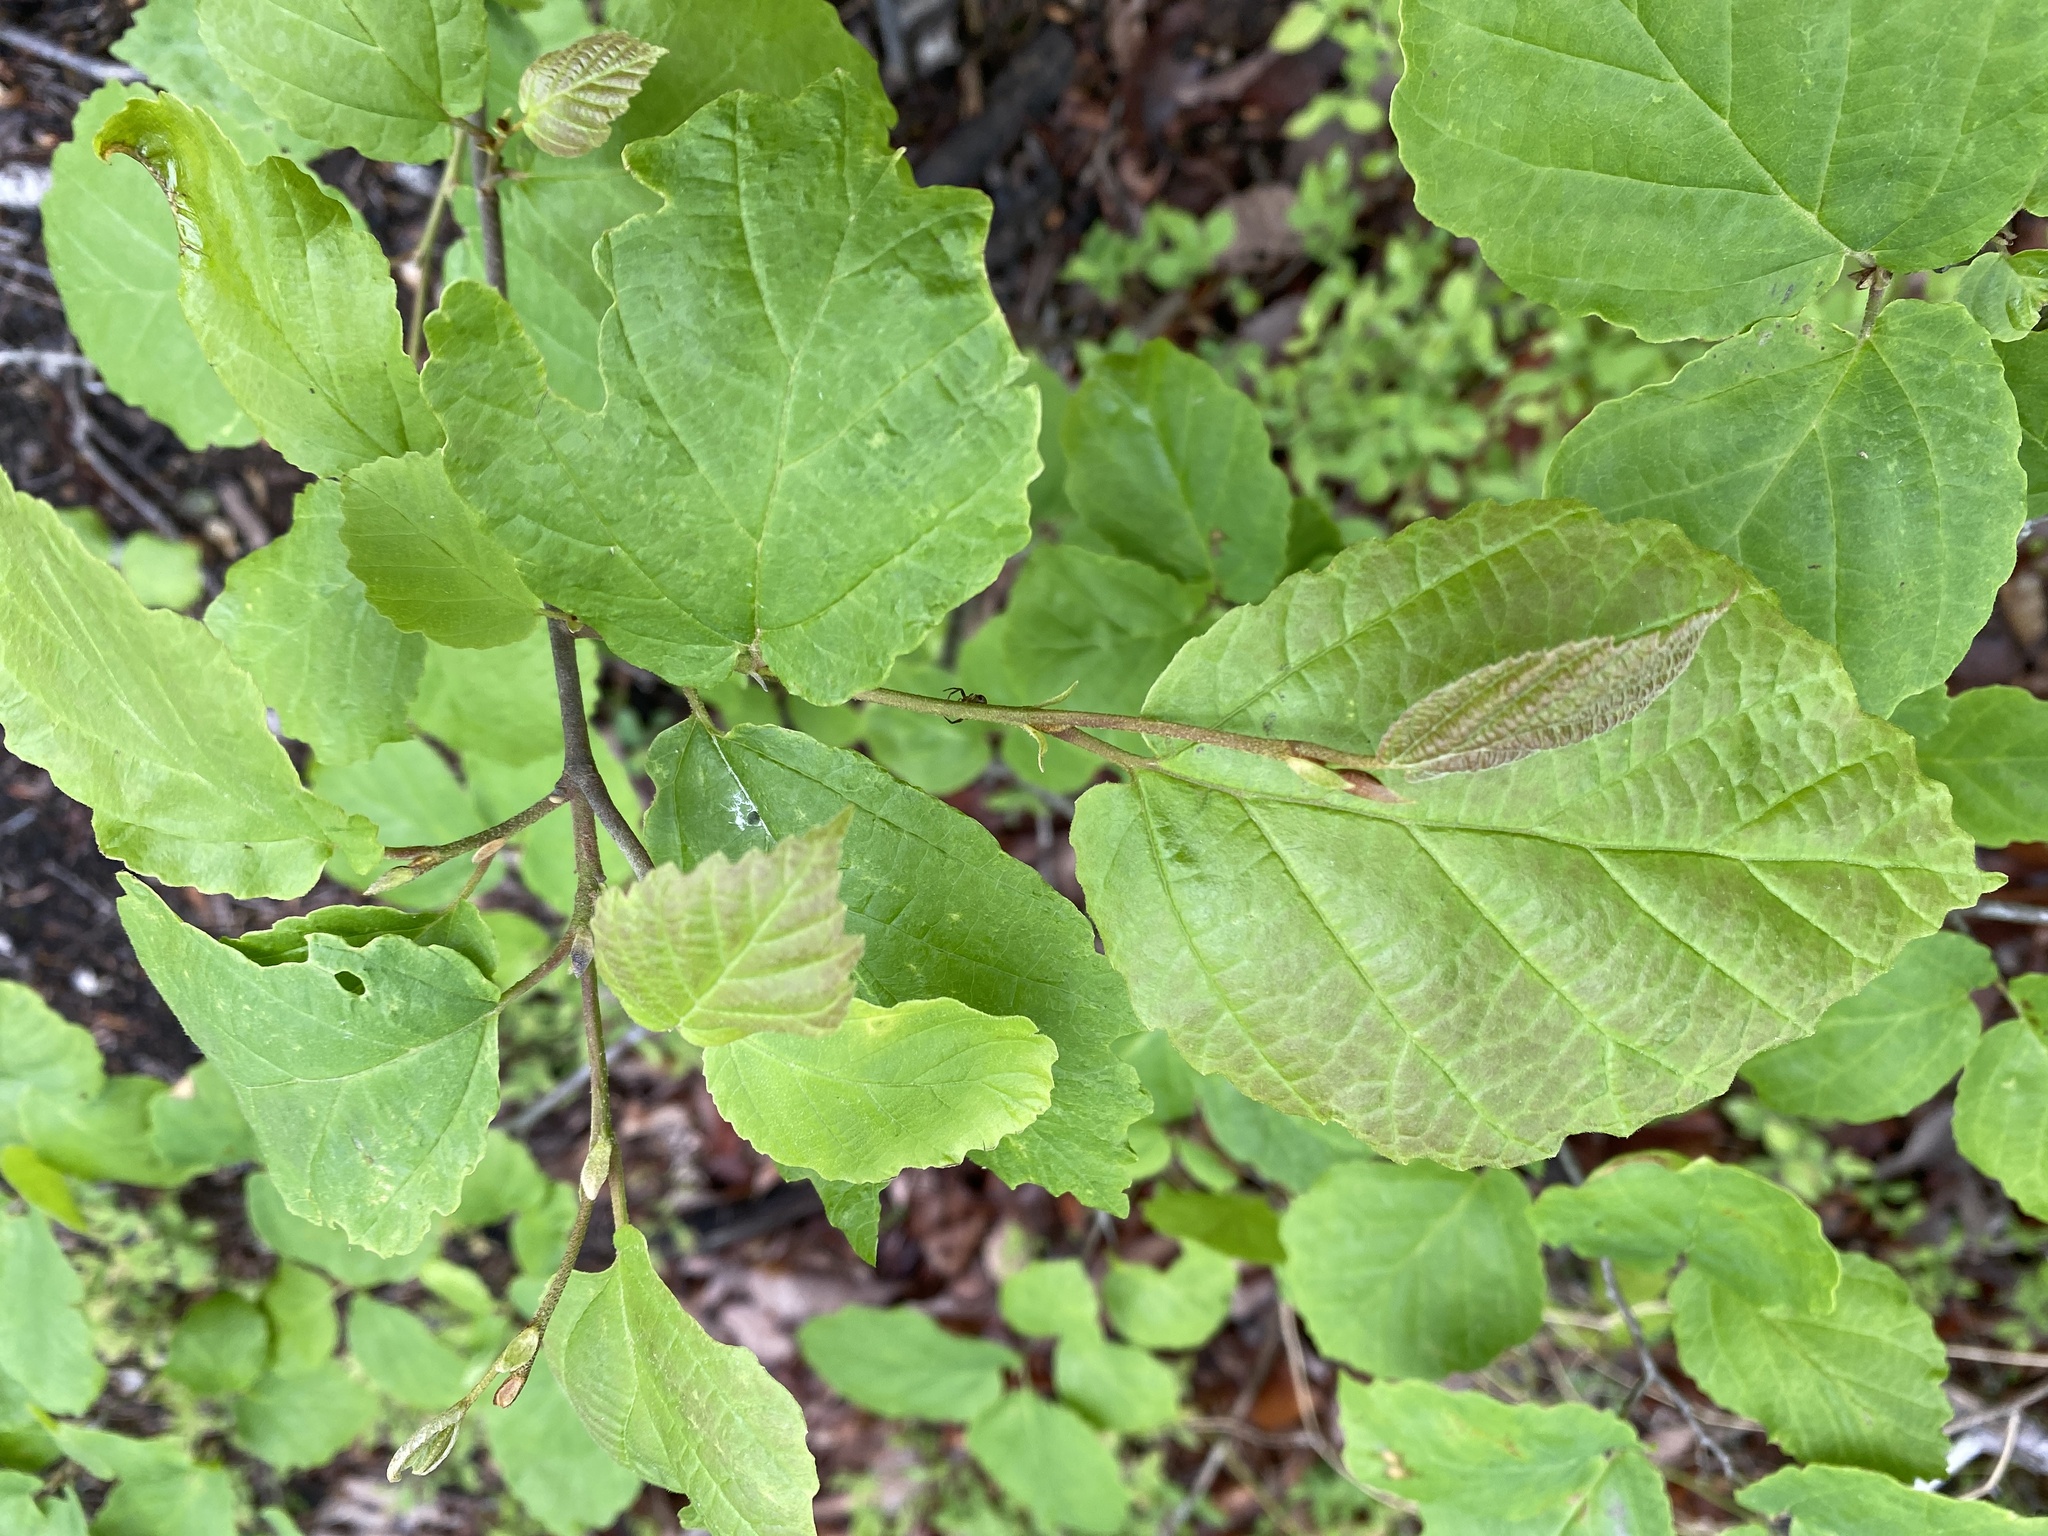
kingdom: Plantae
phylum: Tracheophyta
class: Magnoliopsida
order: Saxifragales
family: Hamamelidaceae
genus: Hamamelis
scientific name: Hamamelis virginiana
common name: Witch-hazel
